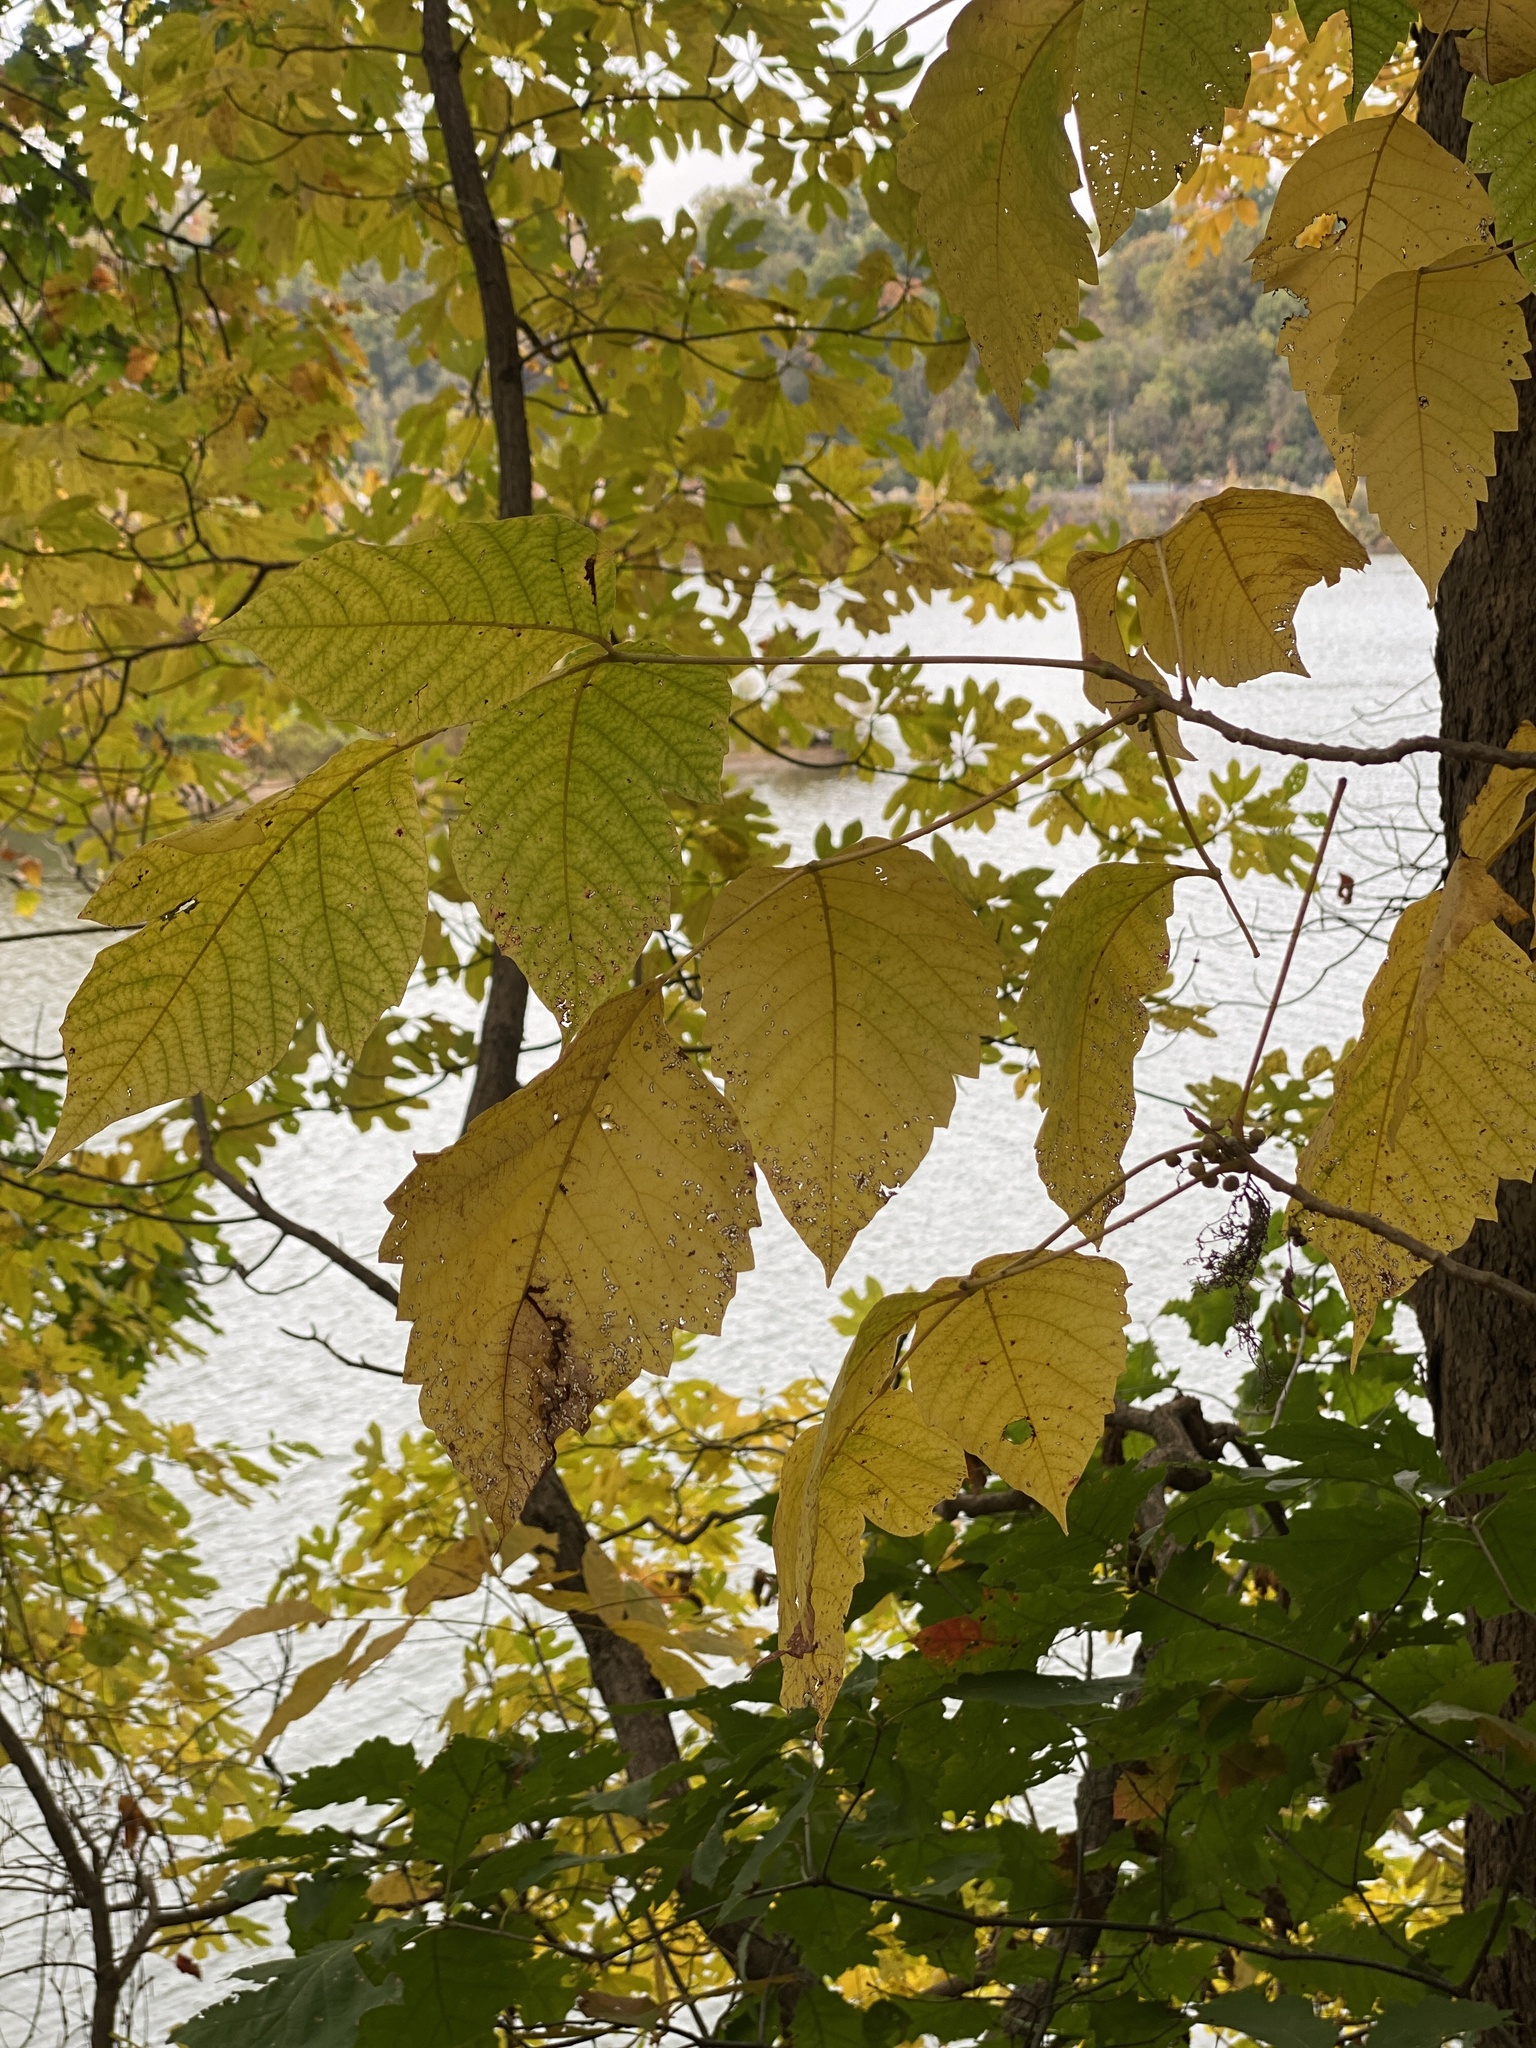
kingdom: Plantae
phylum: Tracheophyta
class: Magnoliopsida
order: Sapindales
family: Anacardiaceae
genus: Toxicodendron
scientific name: Toxicodendron radicans
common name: Poison ivy
